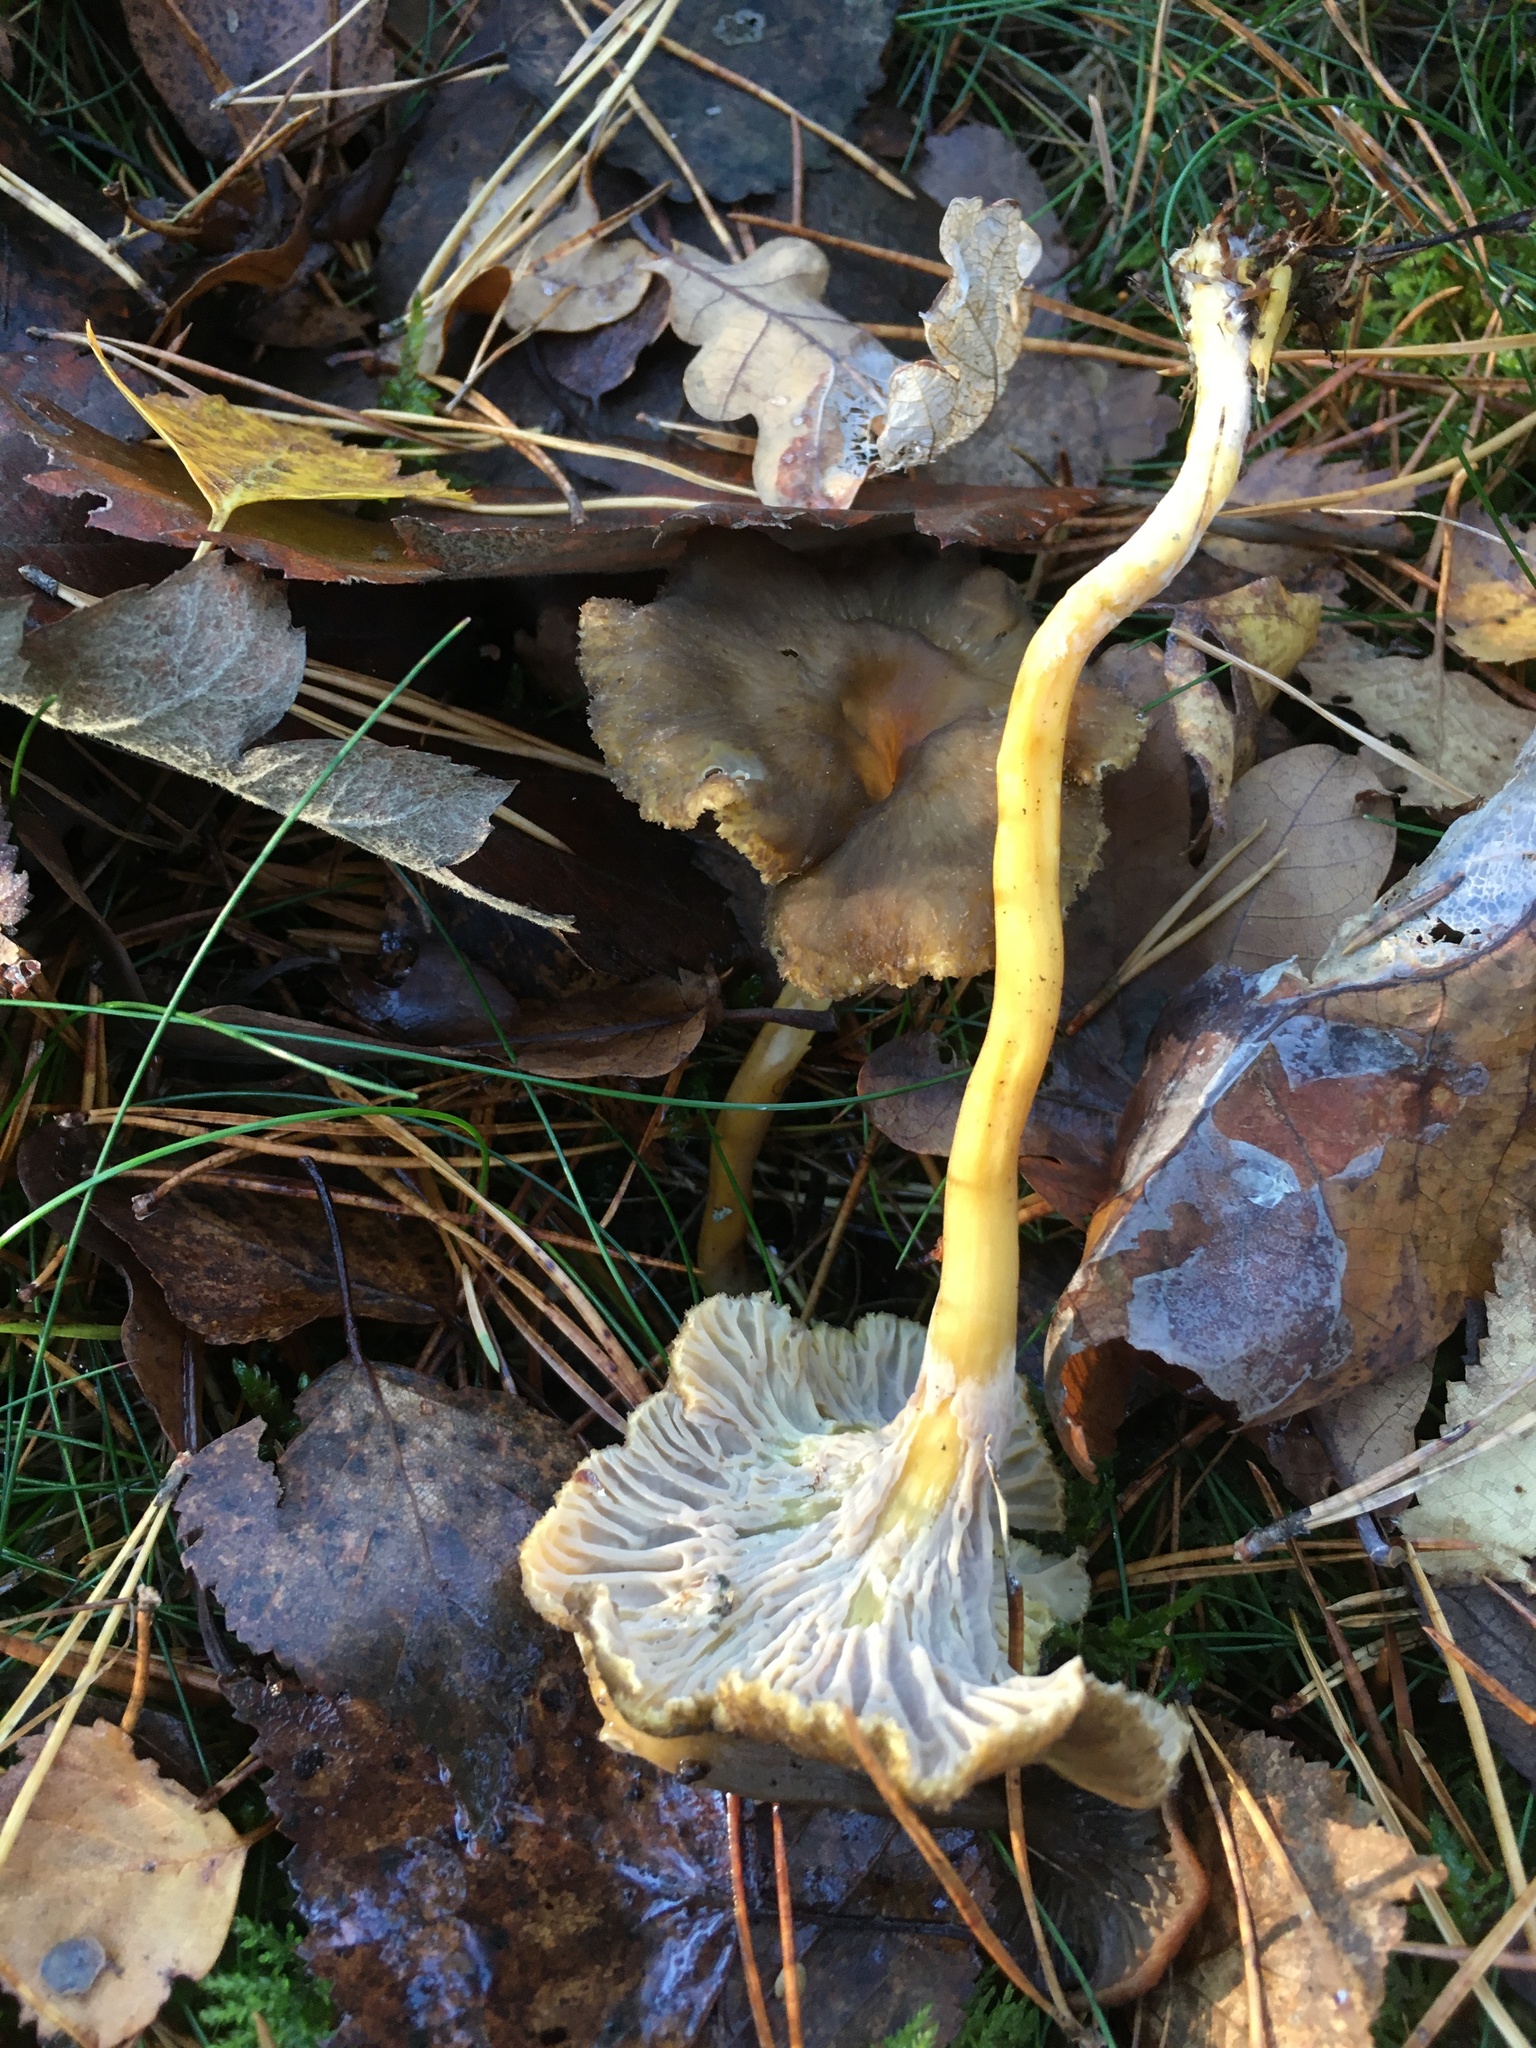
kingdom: Fungi
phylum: Basidiomycota
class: Agaricomycetes
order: Cantharellales
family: Hydnaceae
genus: Craterellus
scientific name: Craterellus tubaeformis
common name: Yellowfoot
